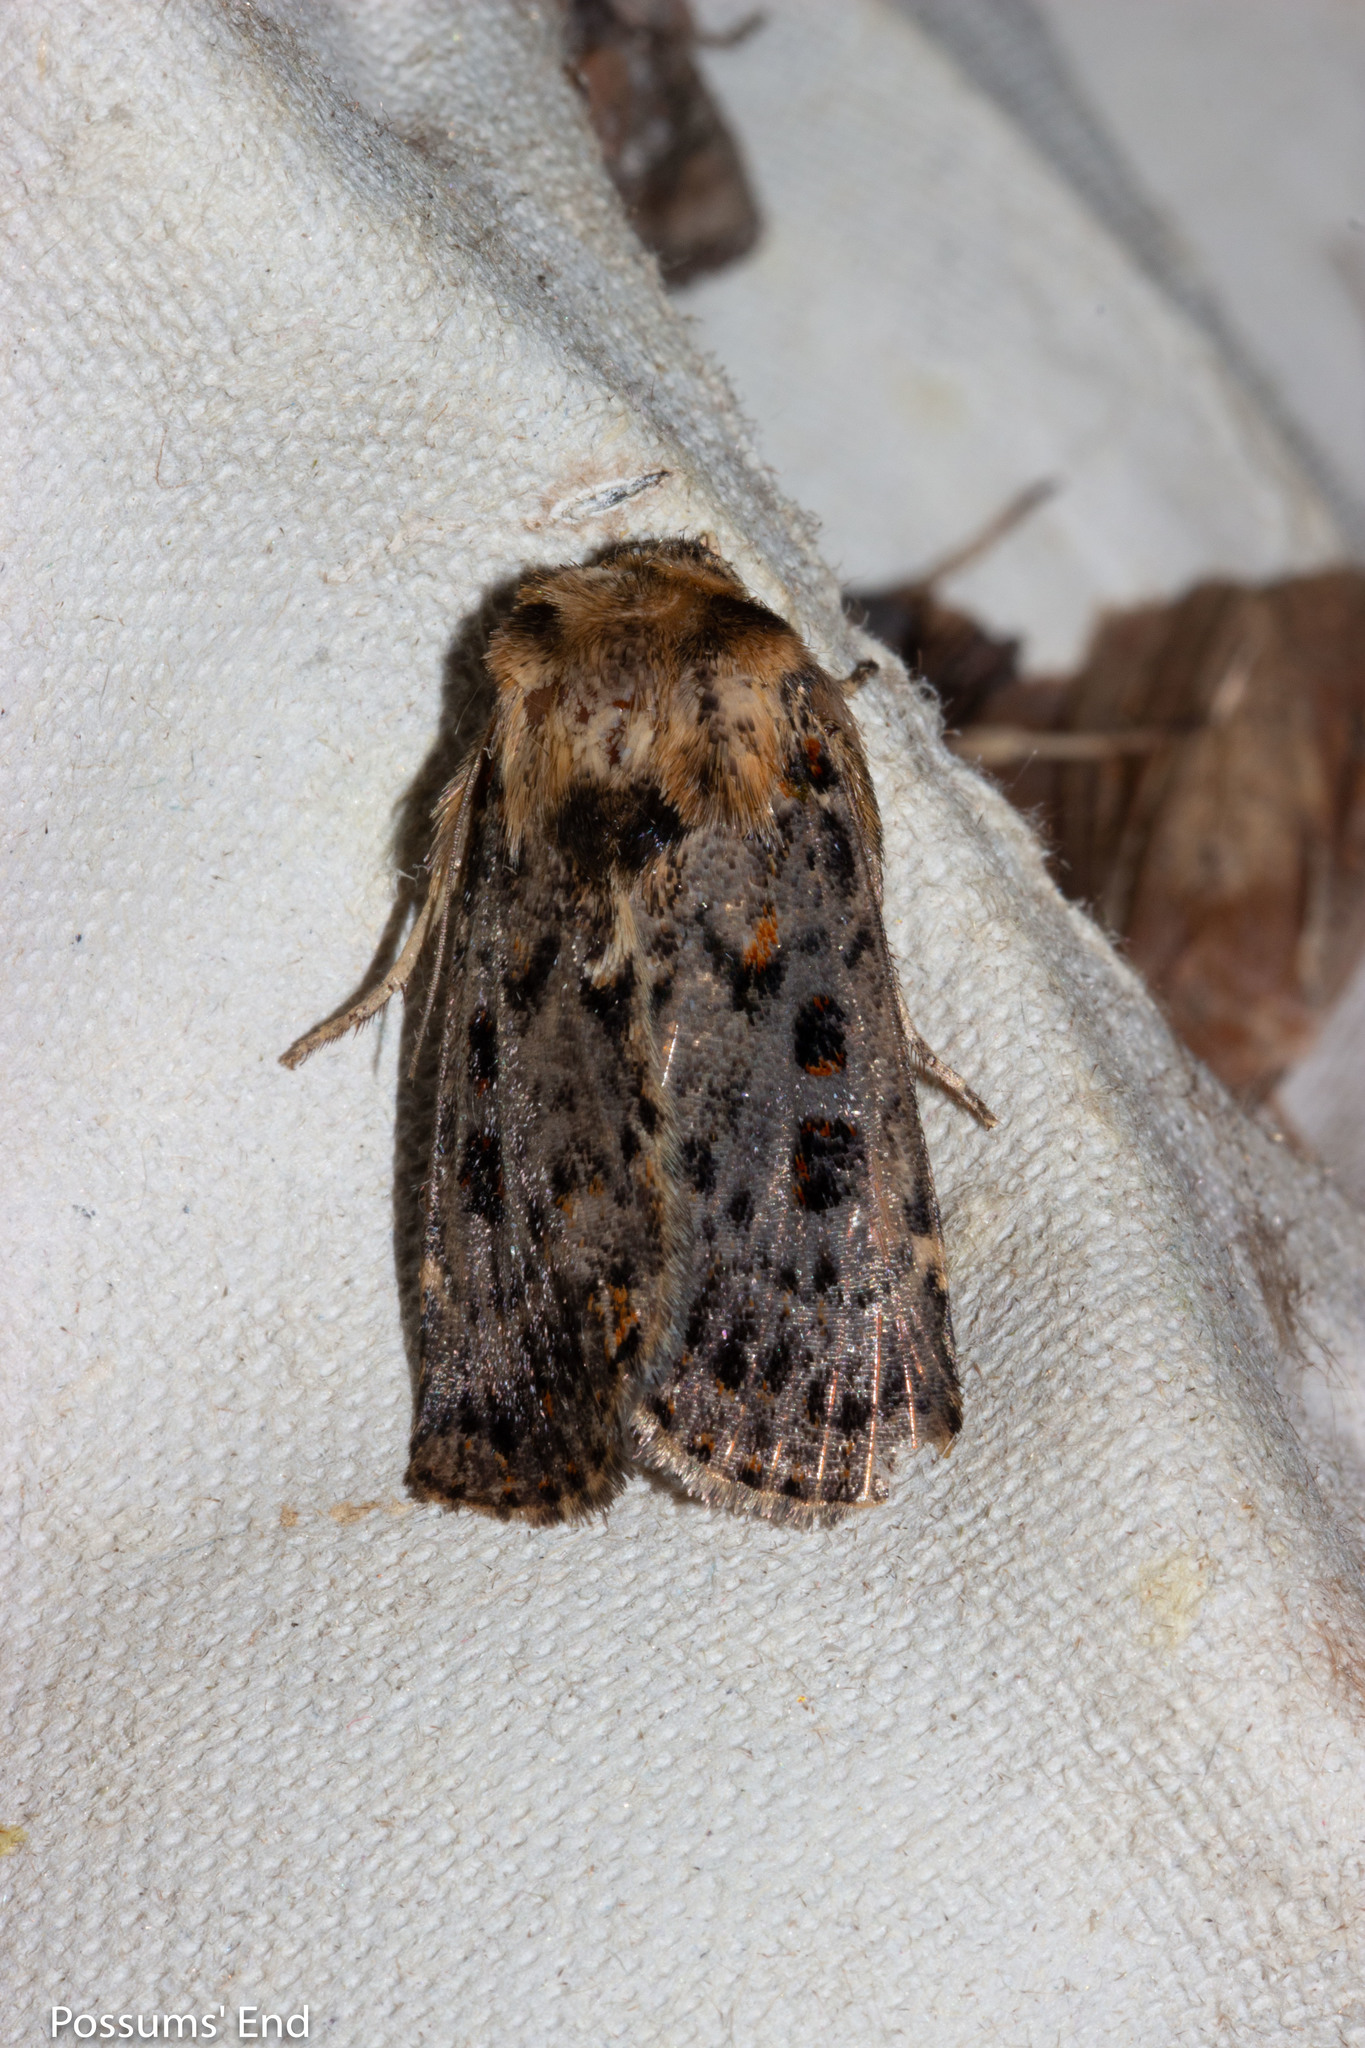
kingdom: Animalia
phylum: Arthropoda
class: Insecta
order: Lepidoptera
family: Noctuidae
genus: Proteuxoa
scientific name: Proteuxoa sanguinipuncta
